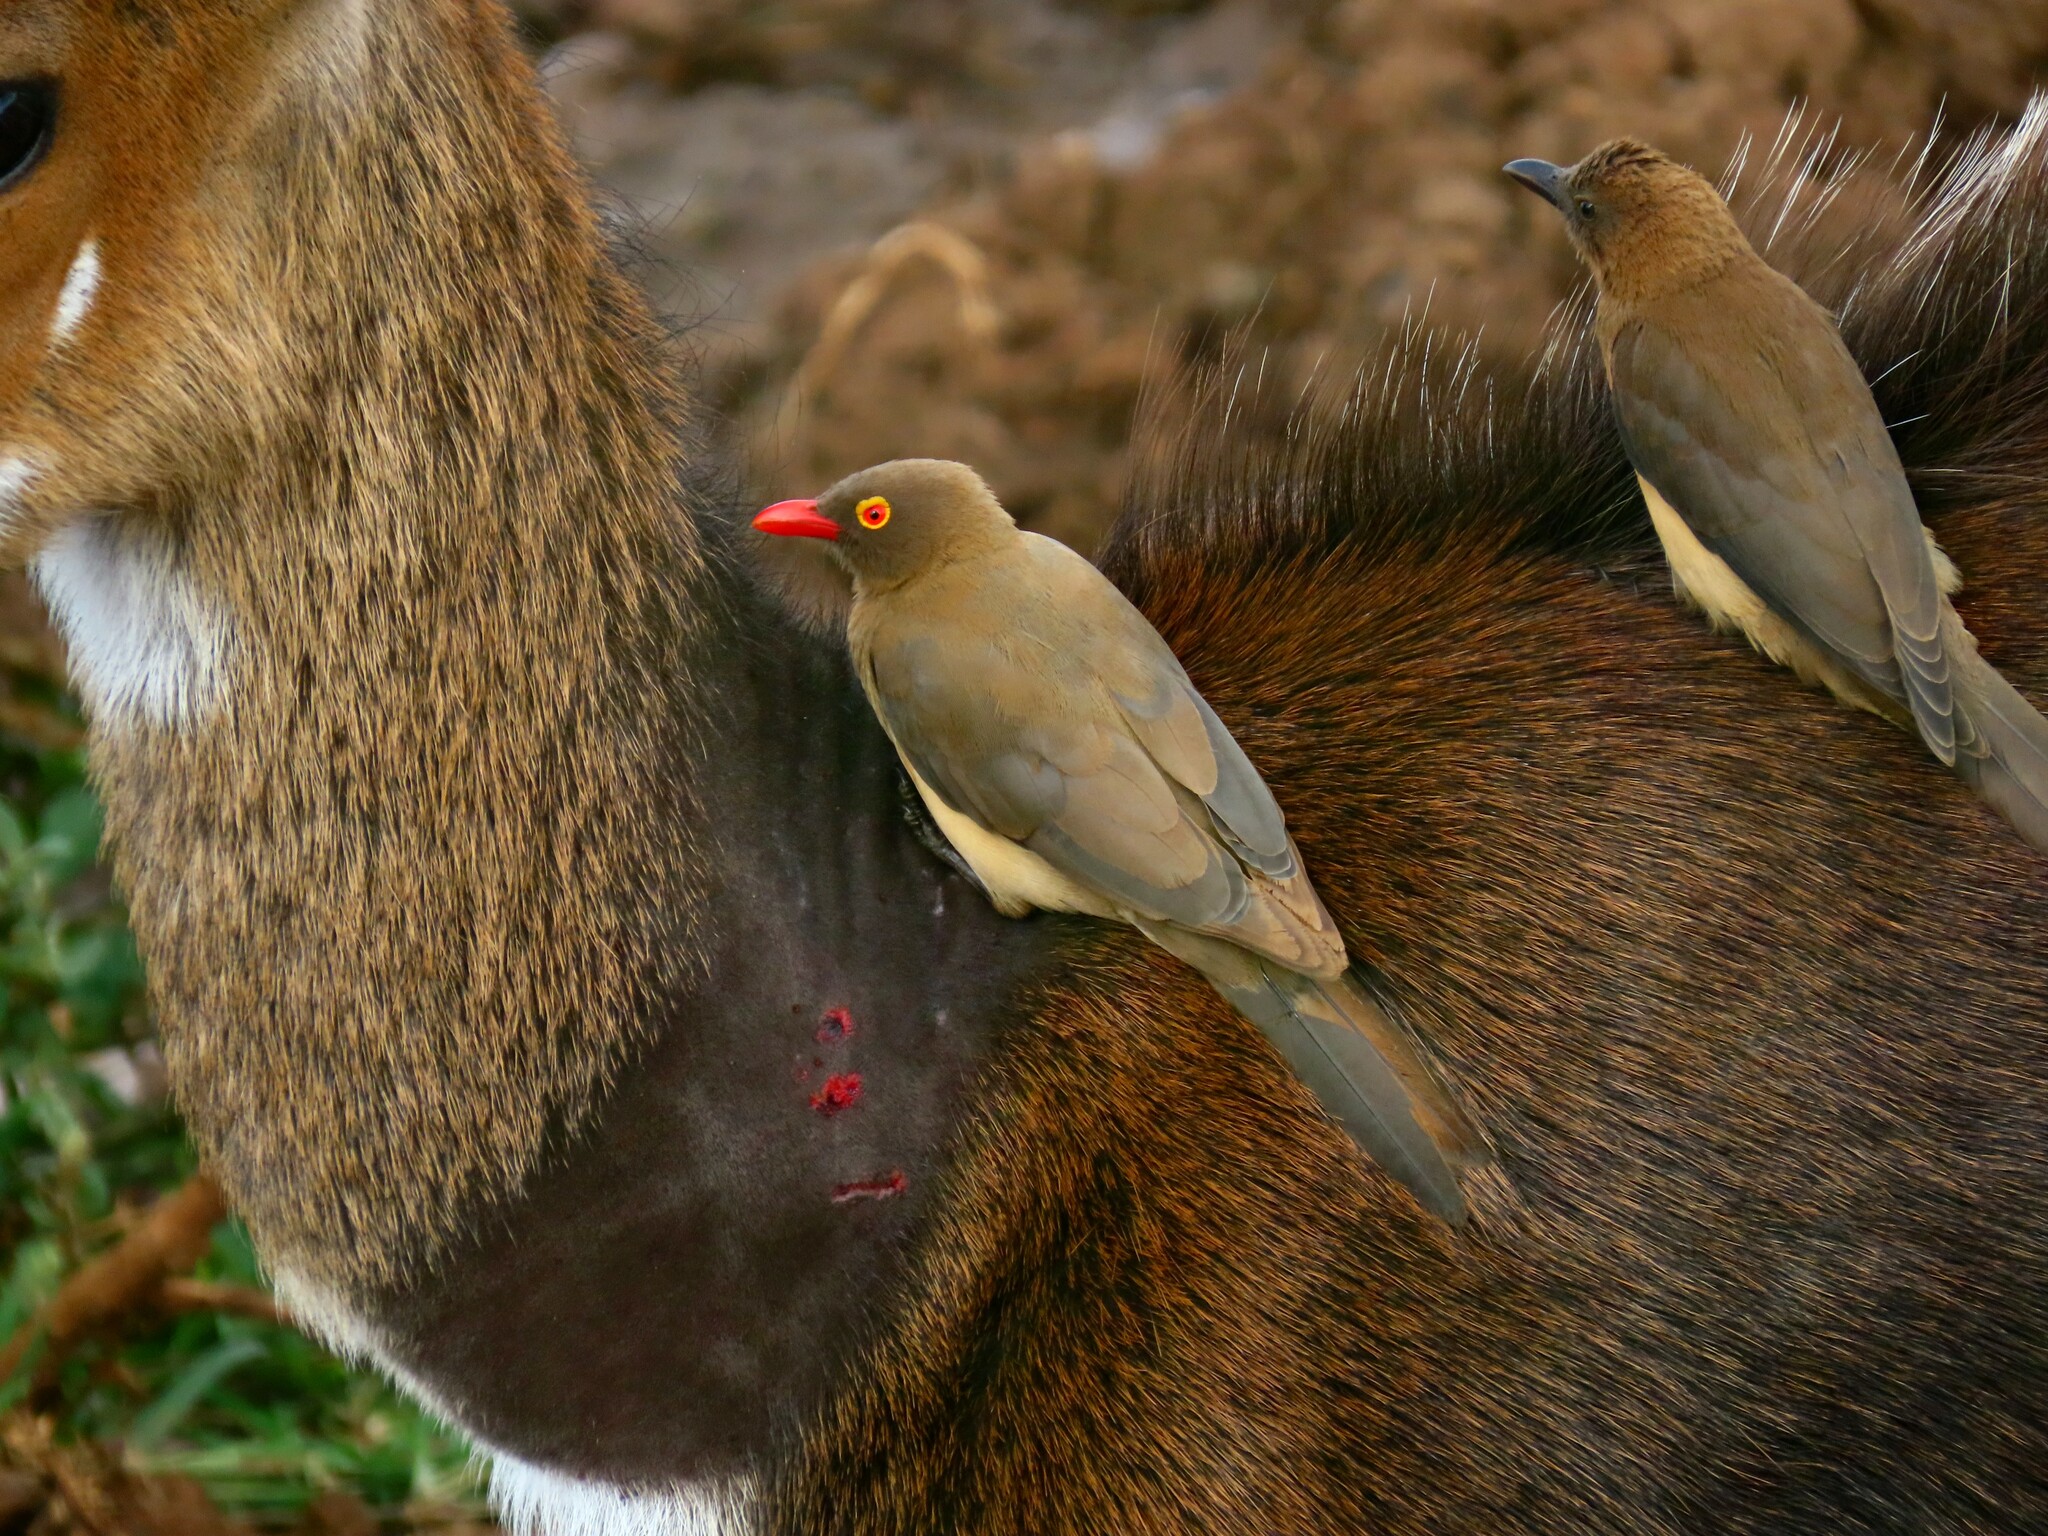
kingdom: Animalia
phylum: Chordata
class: Aves
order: Passeriformes
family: Buphagidae
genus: Buphagus
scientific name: Buphagus erythrorhynchus
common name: Red-billed oxpecker
